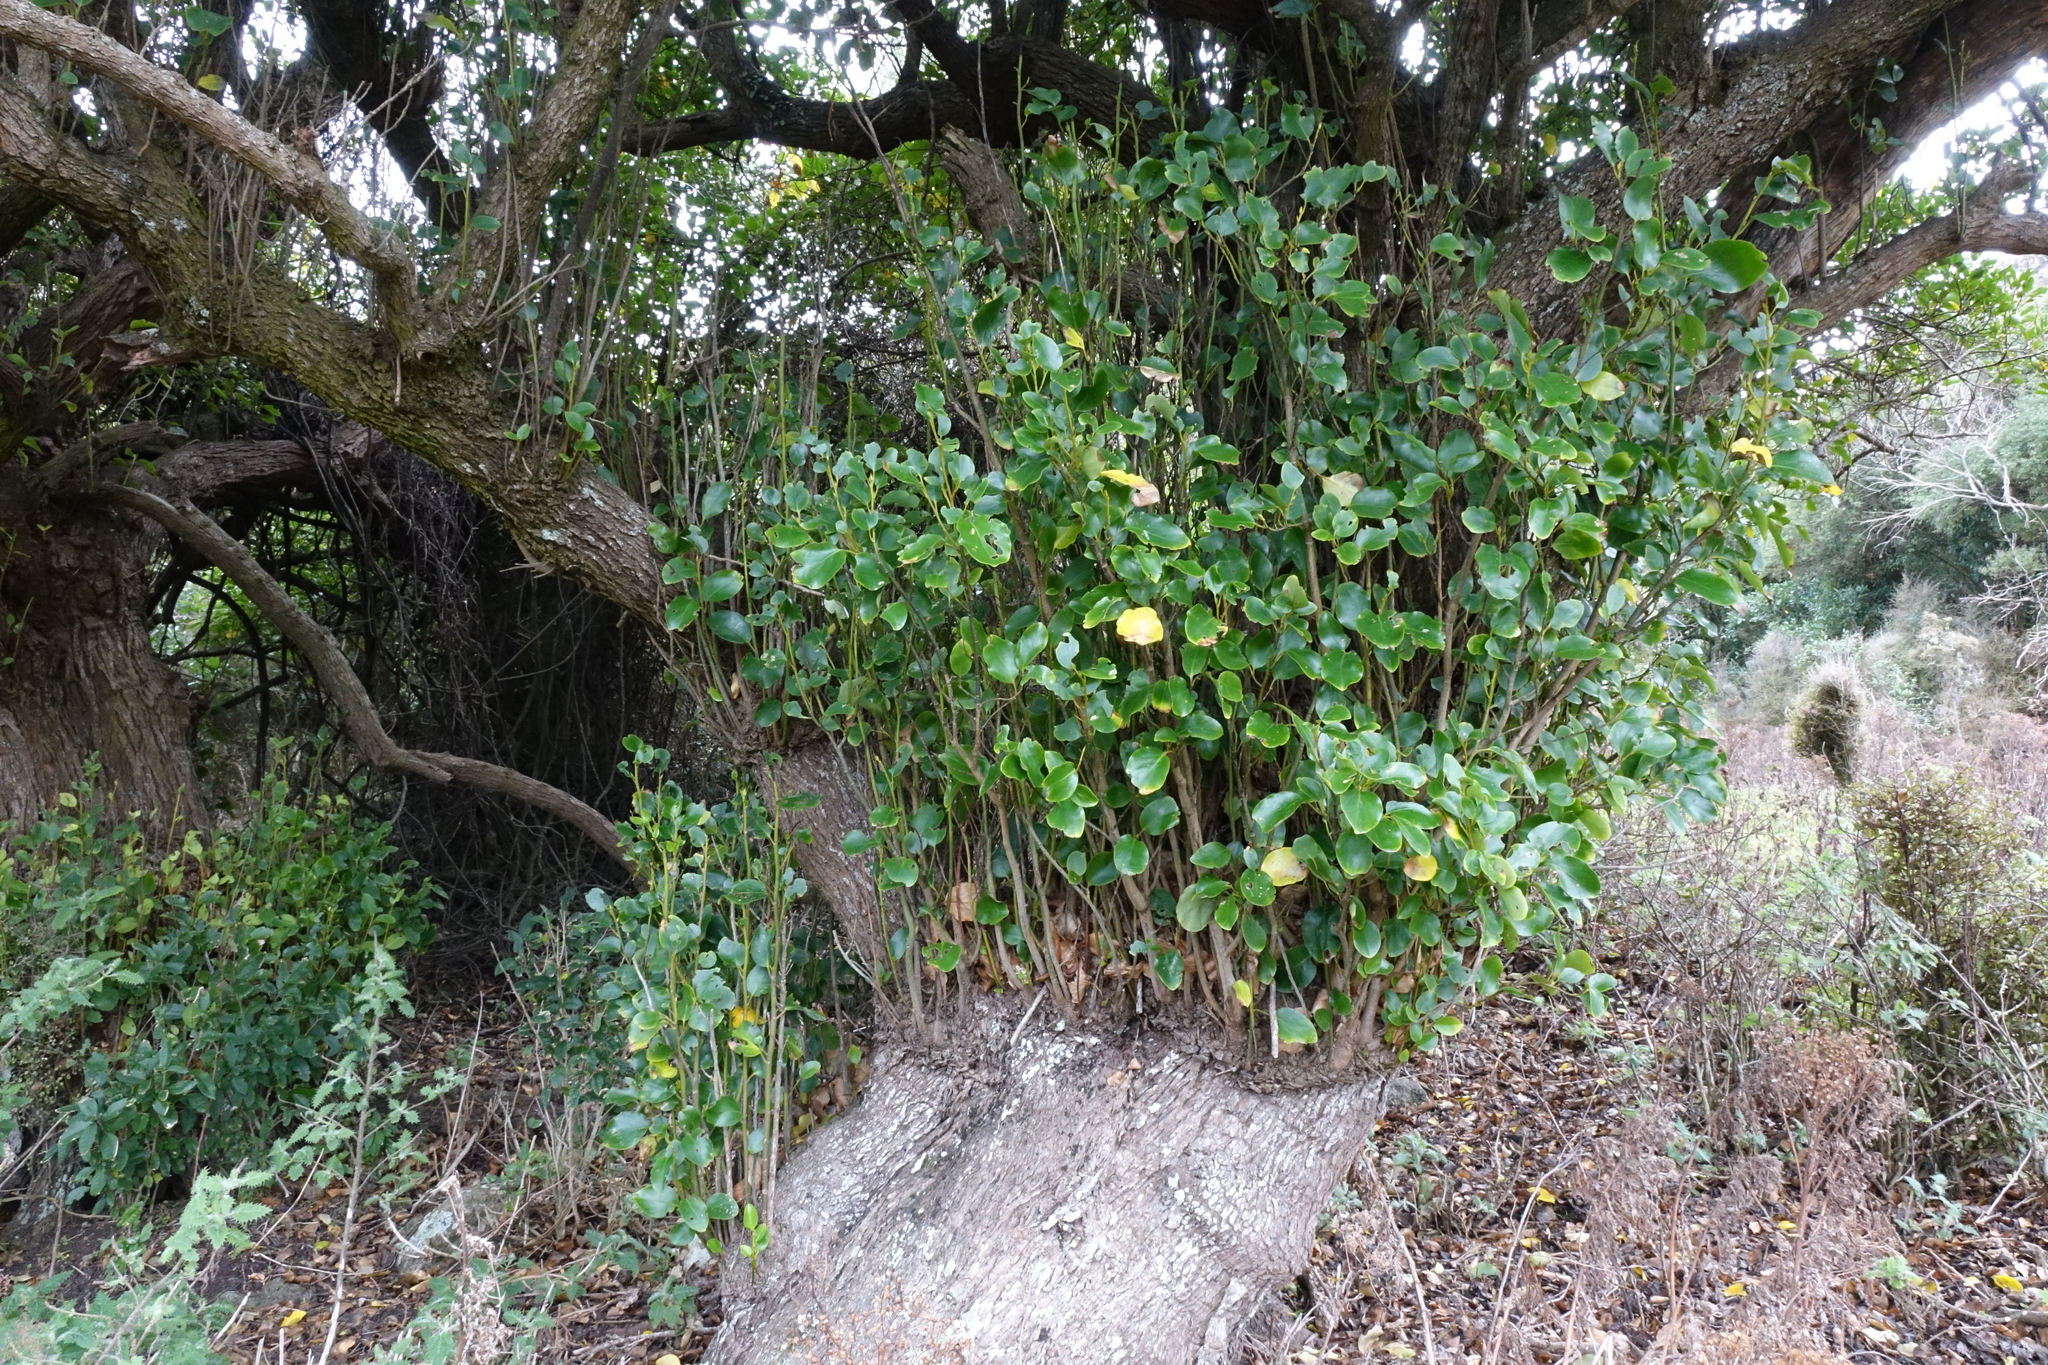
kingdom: Plantae
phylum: Tracheophyta
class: Magnoliopsida
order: Apiales
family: Griseliniaceae
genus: Griselinia
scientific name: Griselinia littoralis
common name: New zealand broadleaf
